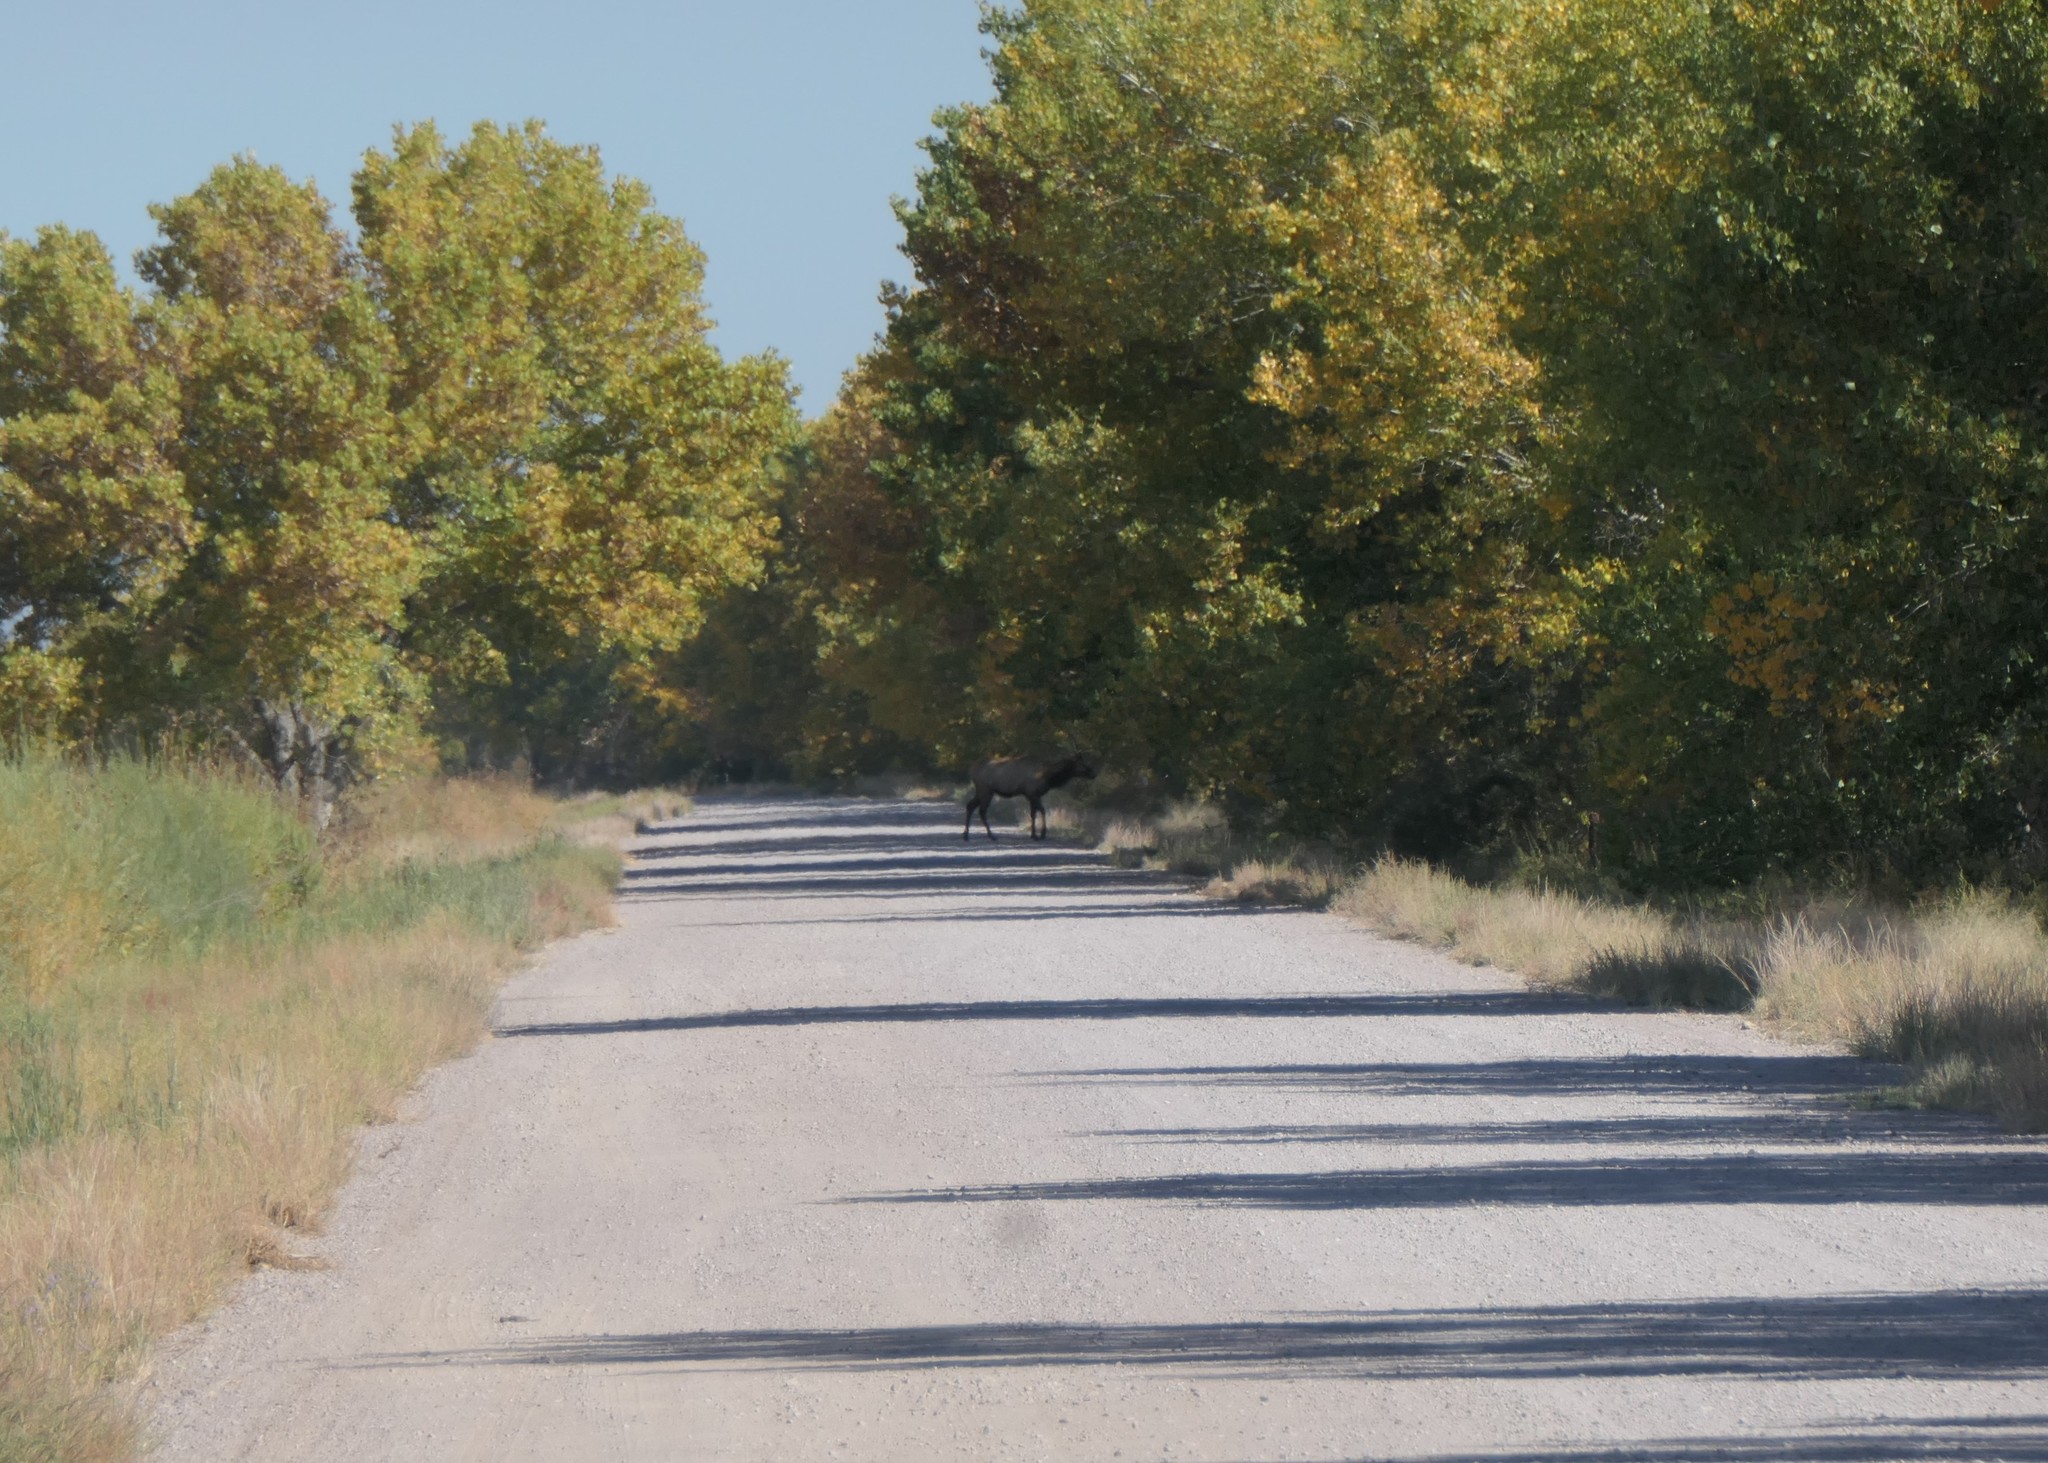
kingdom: Animalia
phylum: Chordata
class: Mammalia
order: Artiodactyla
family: Cervidae
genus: Cervus
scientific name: Cervus elaphus
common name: Red deer
